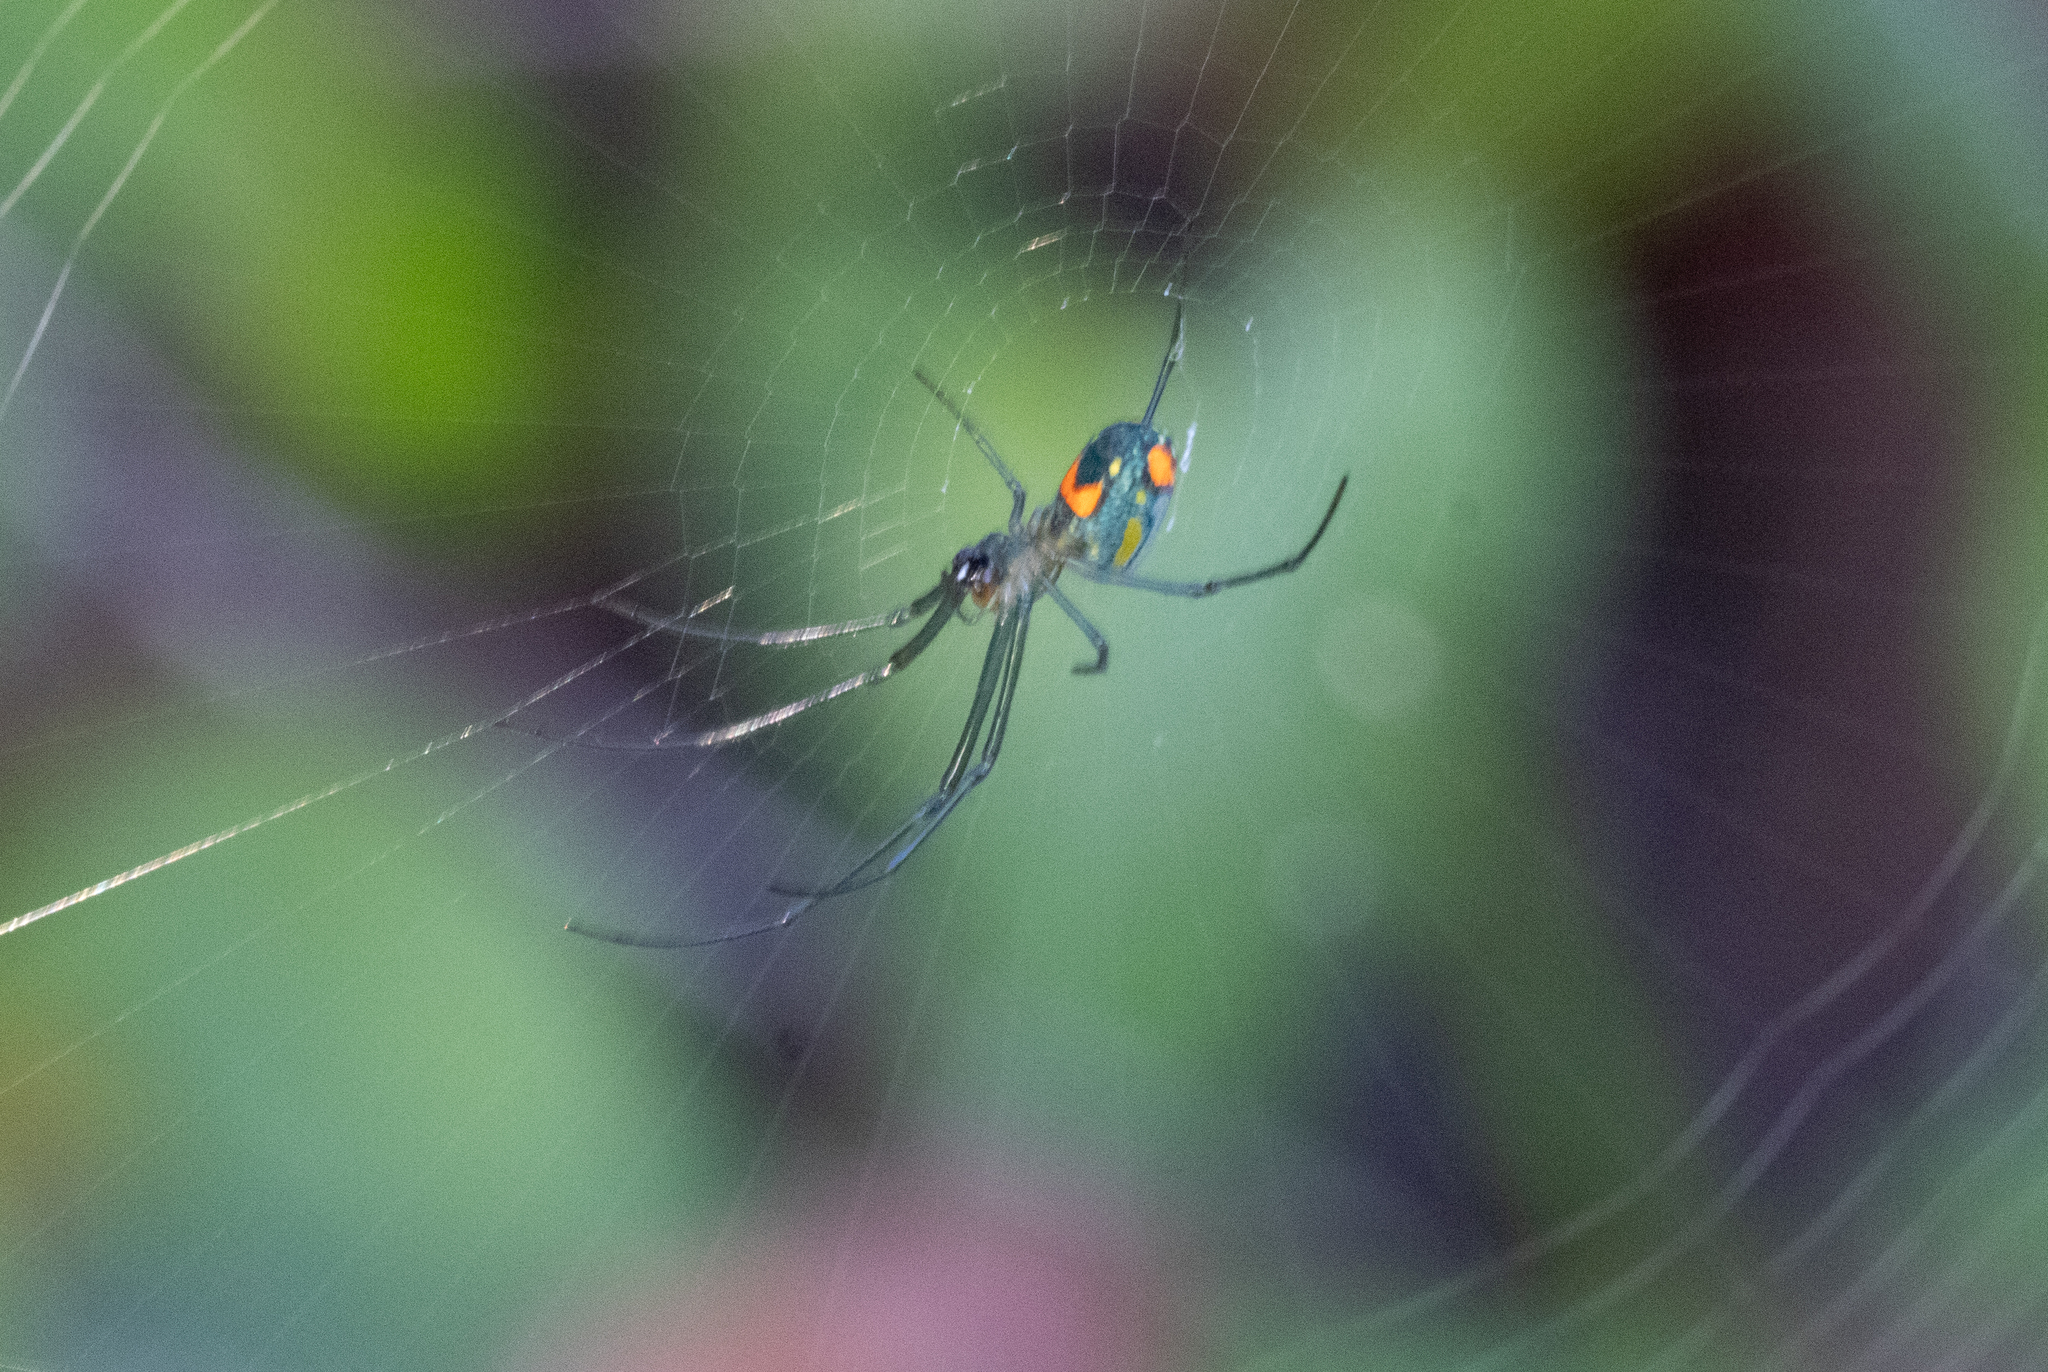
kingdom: Animalia
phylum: Arthropoda
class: Arachnida
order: Araneae
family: Tetragnathidae
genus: Leucauge
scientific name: Leucauge argyrobapta
